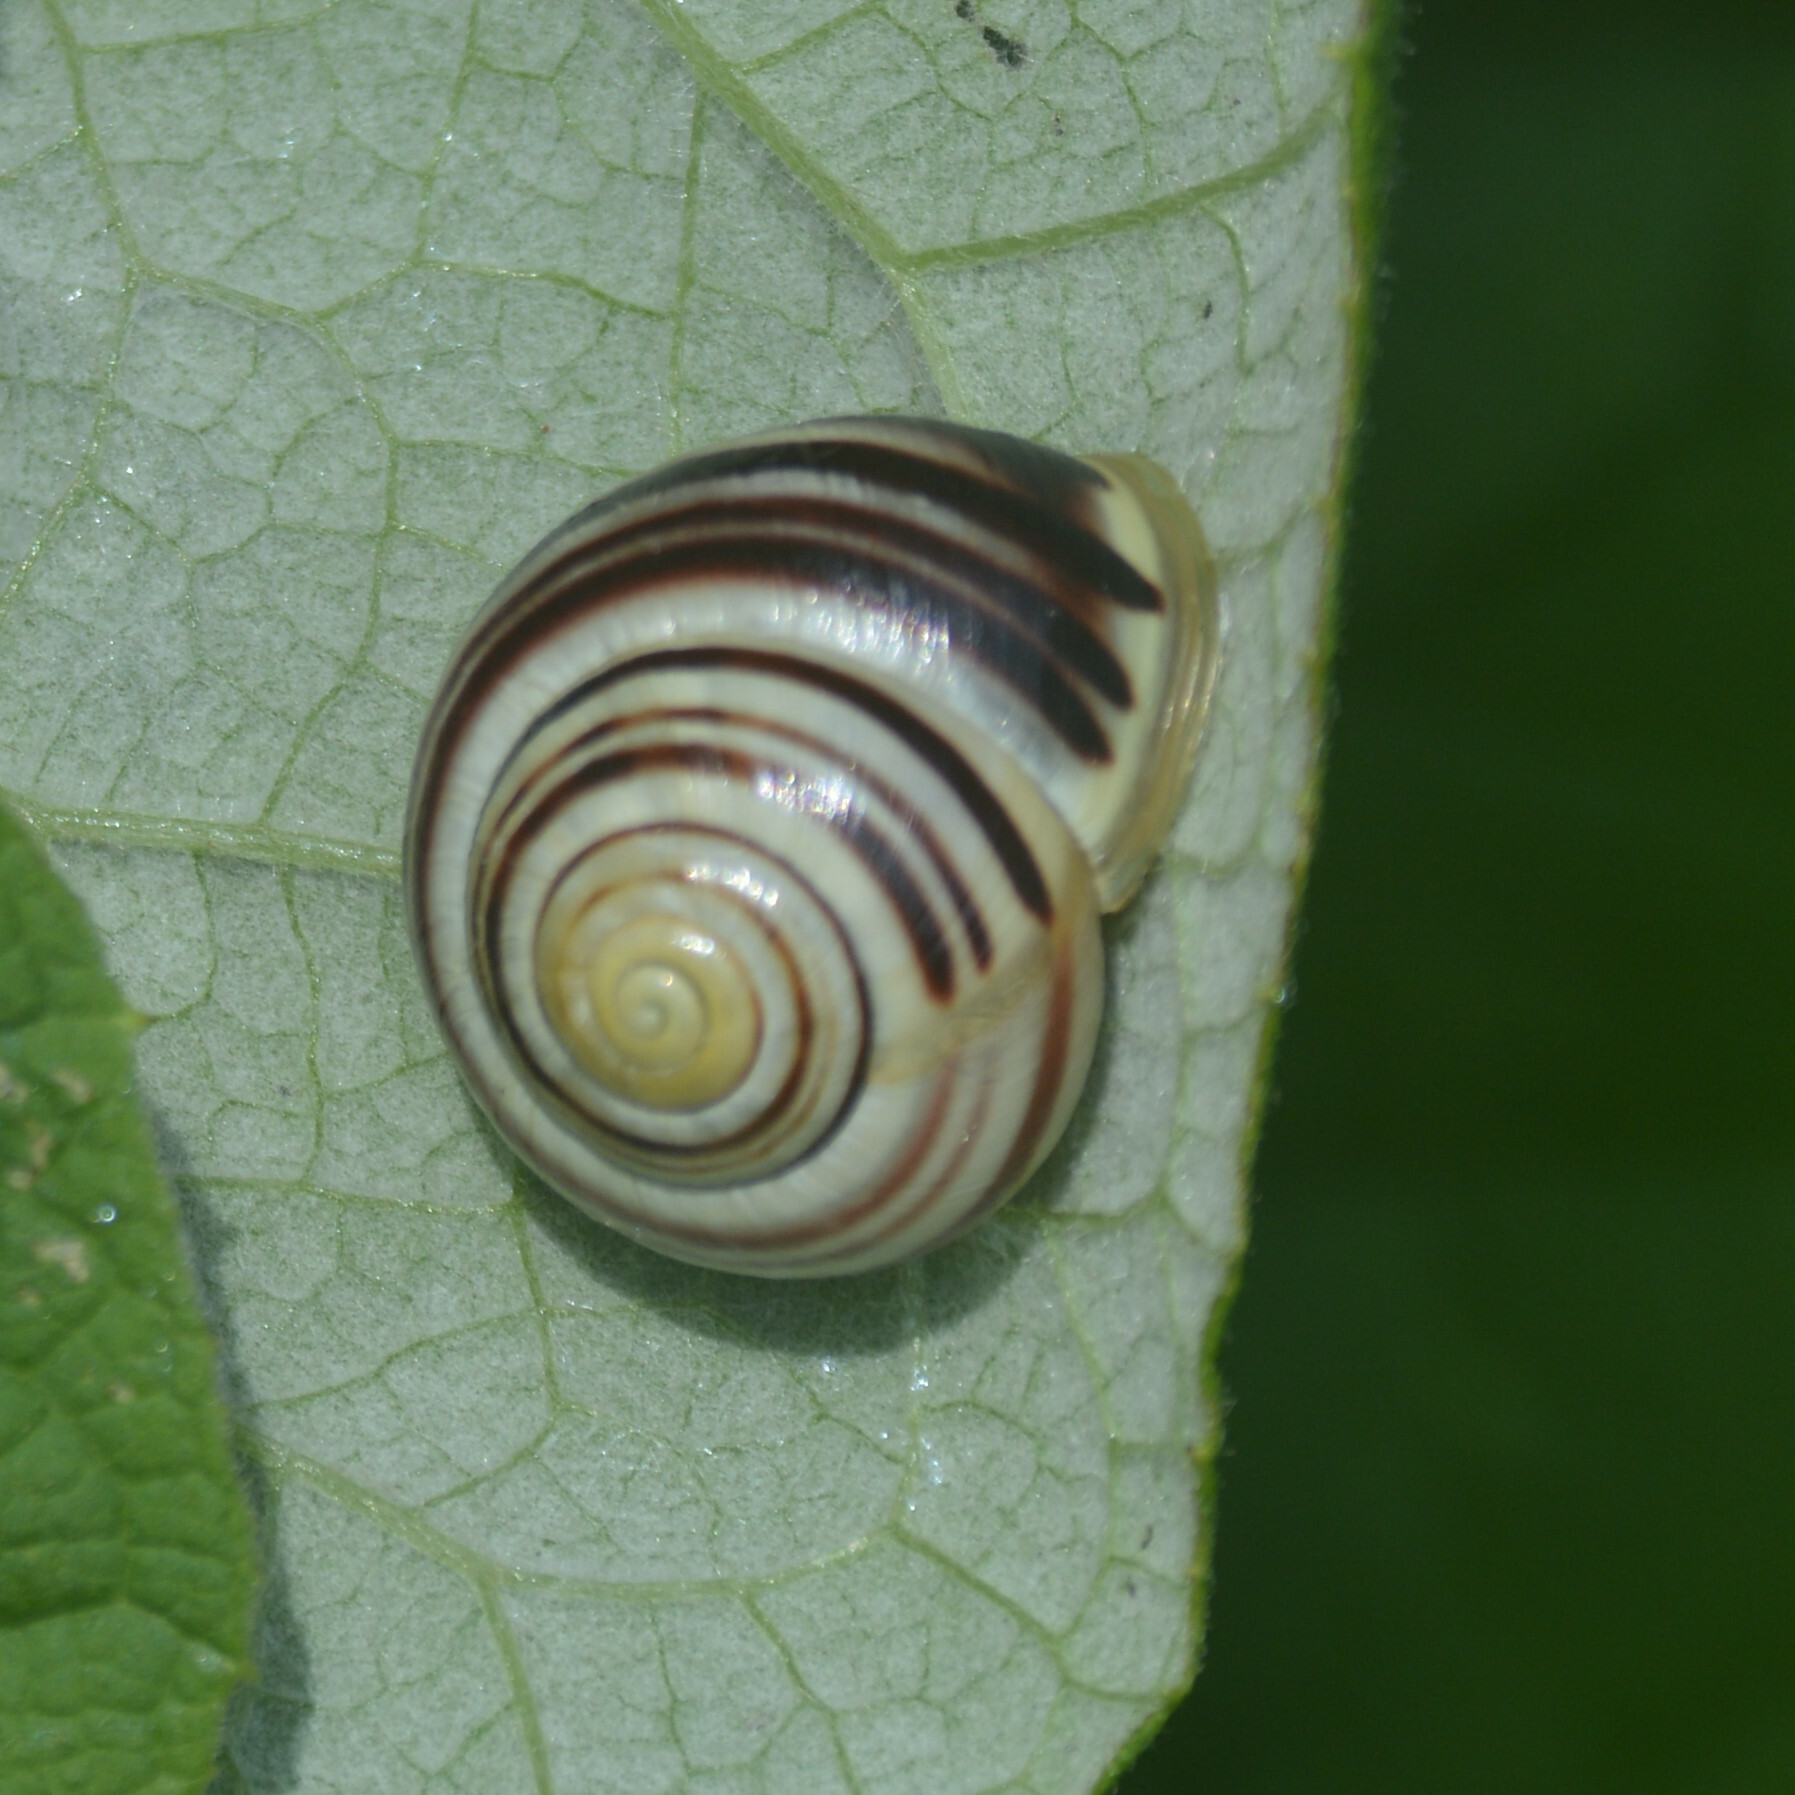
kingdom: Animalia
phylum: Mollusca
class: Gastropoda
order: Stylommatophora
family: Helicidae
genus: Cepaea
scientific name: Cepaea hortensis
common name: White-lip gardensnail
